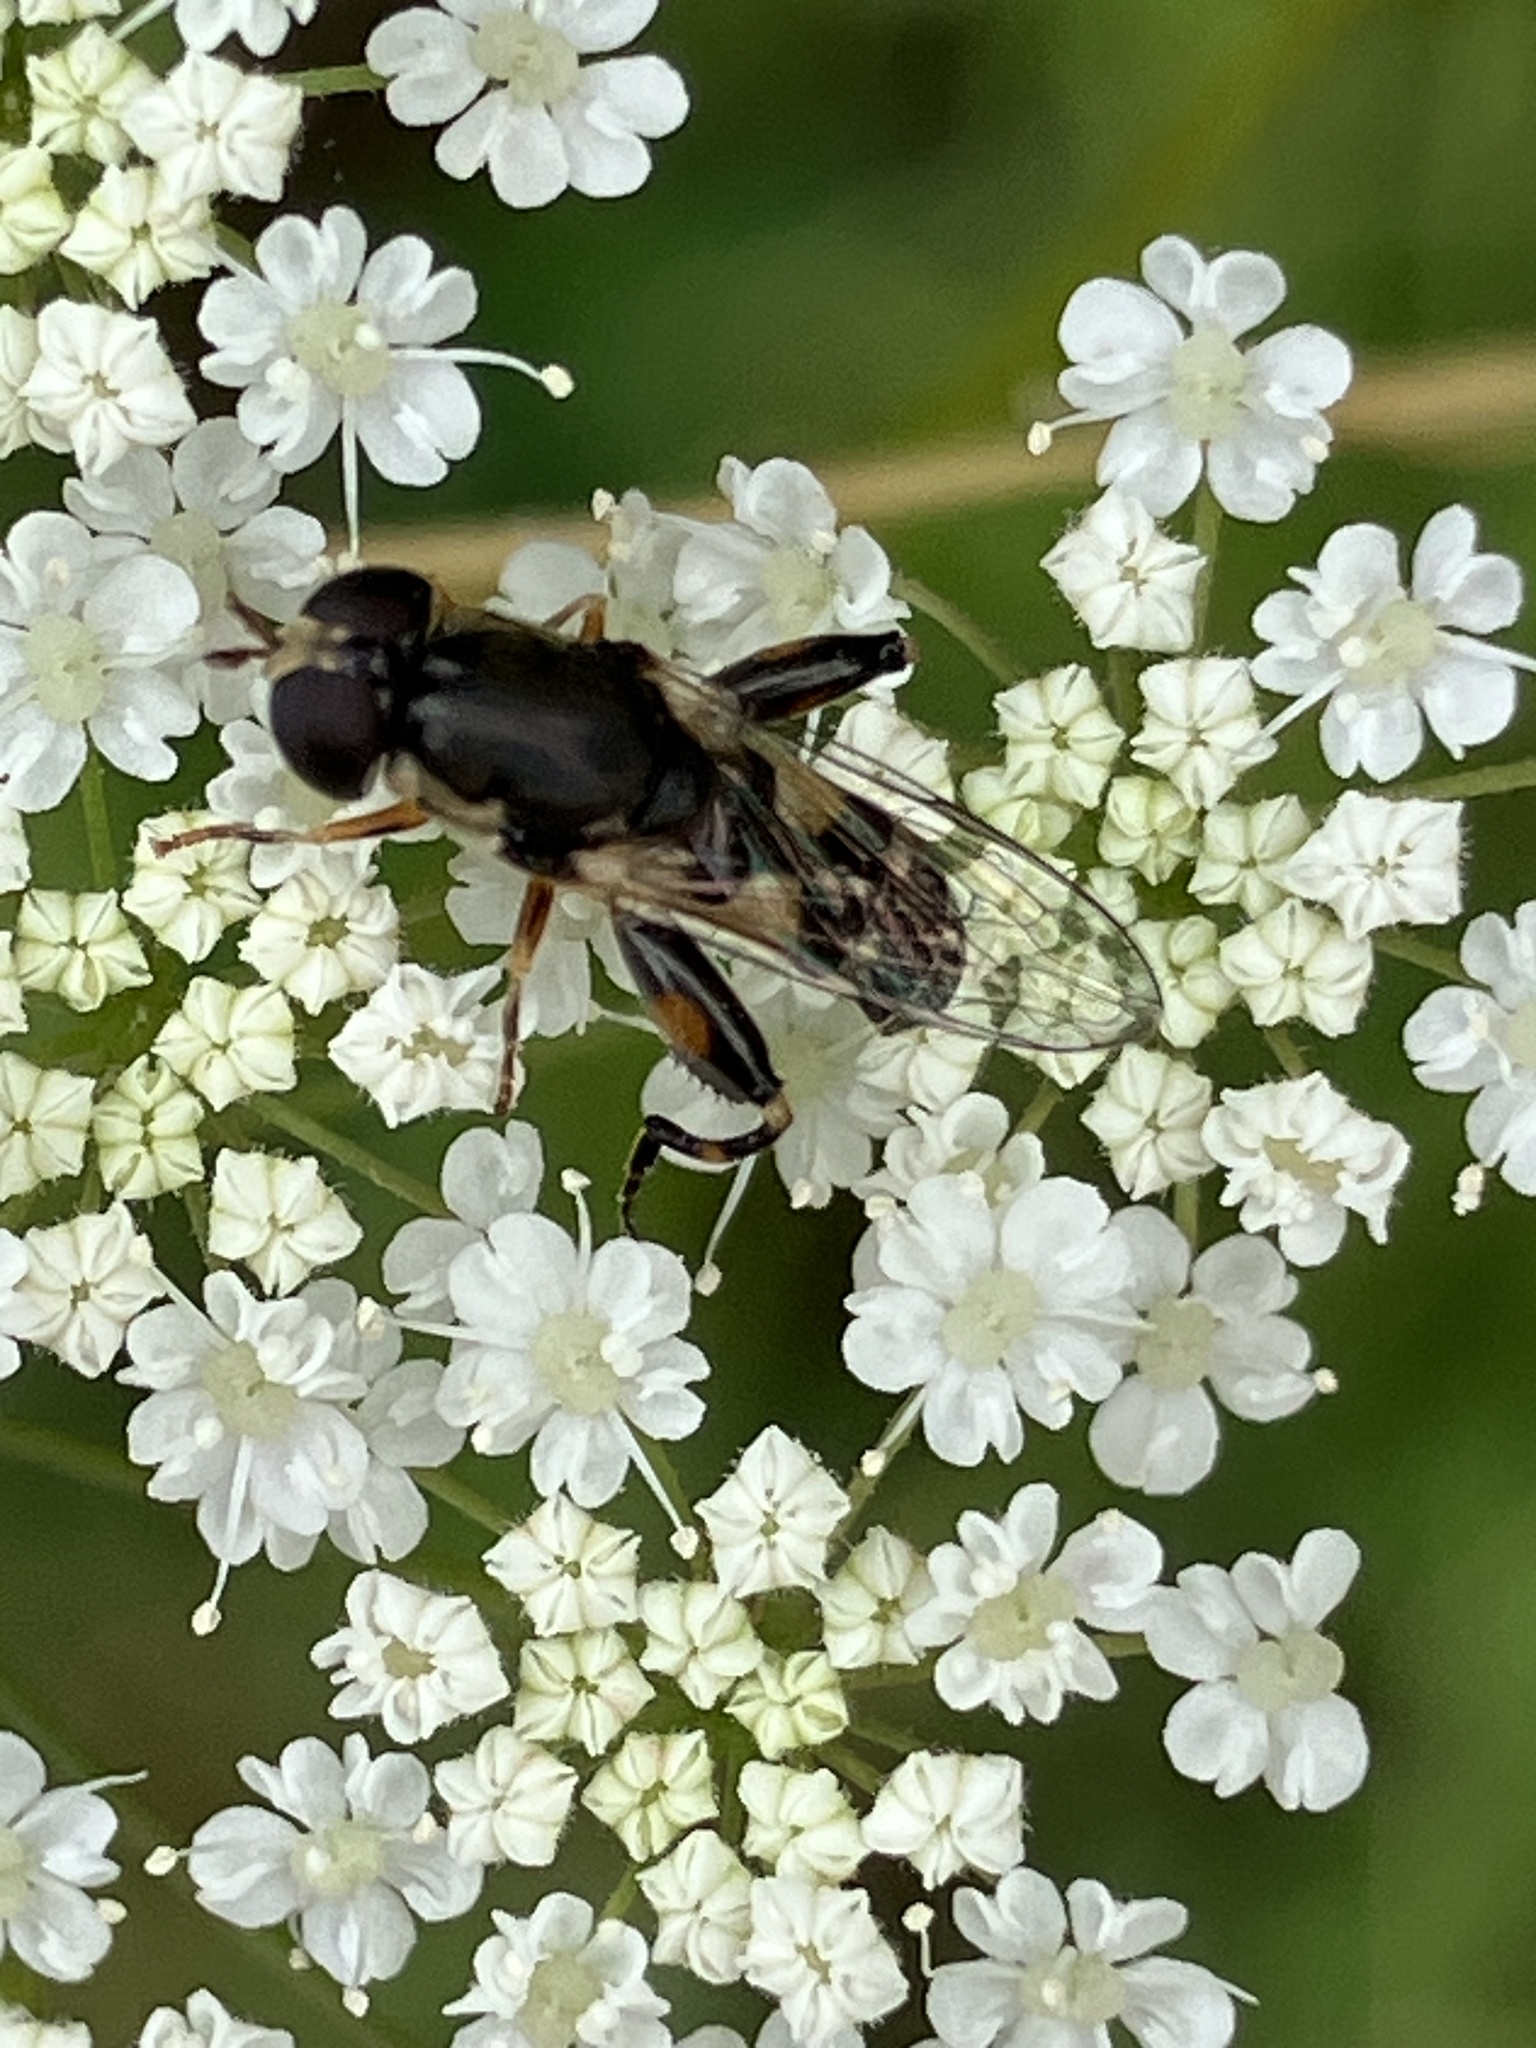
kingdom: Animalia
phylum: Arthropoda
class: Insecta
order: Diptera
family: Syrphidae
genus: Syritta
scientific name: Syritta pipiens
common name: Hover fly
